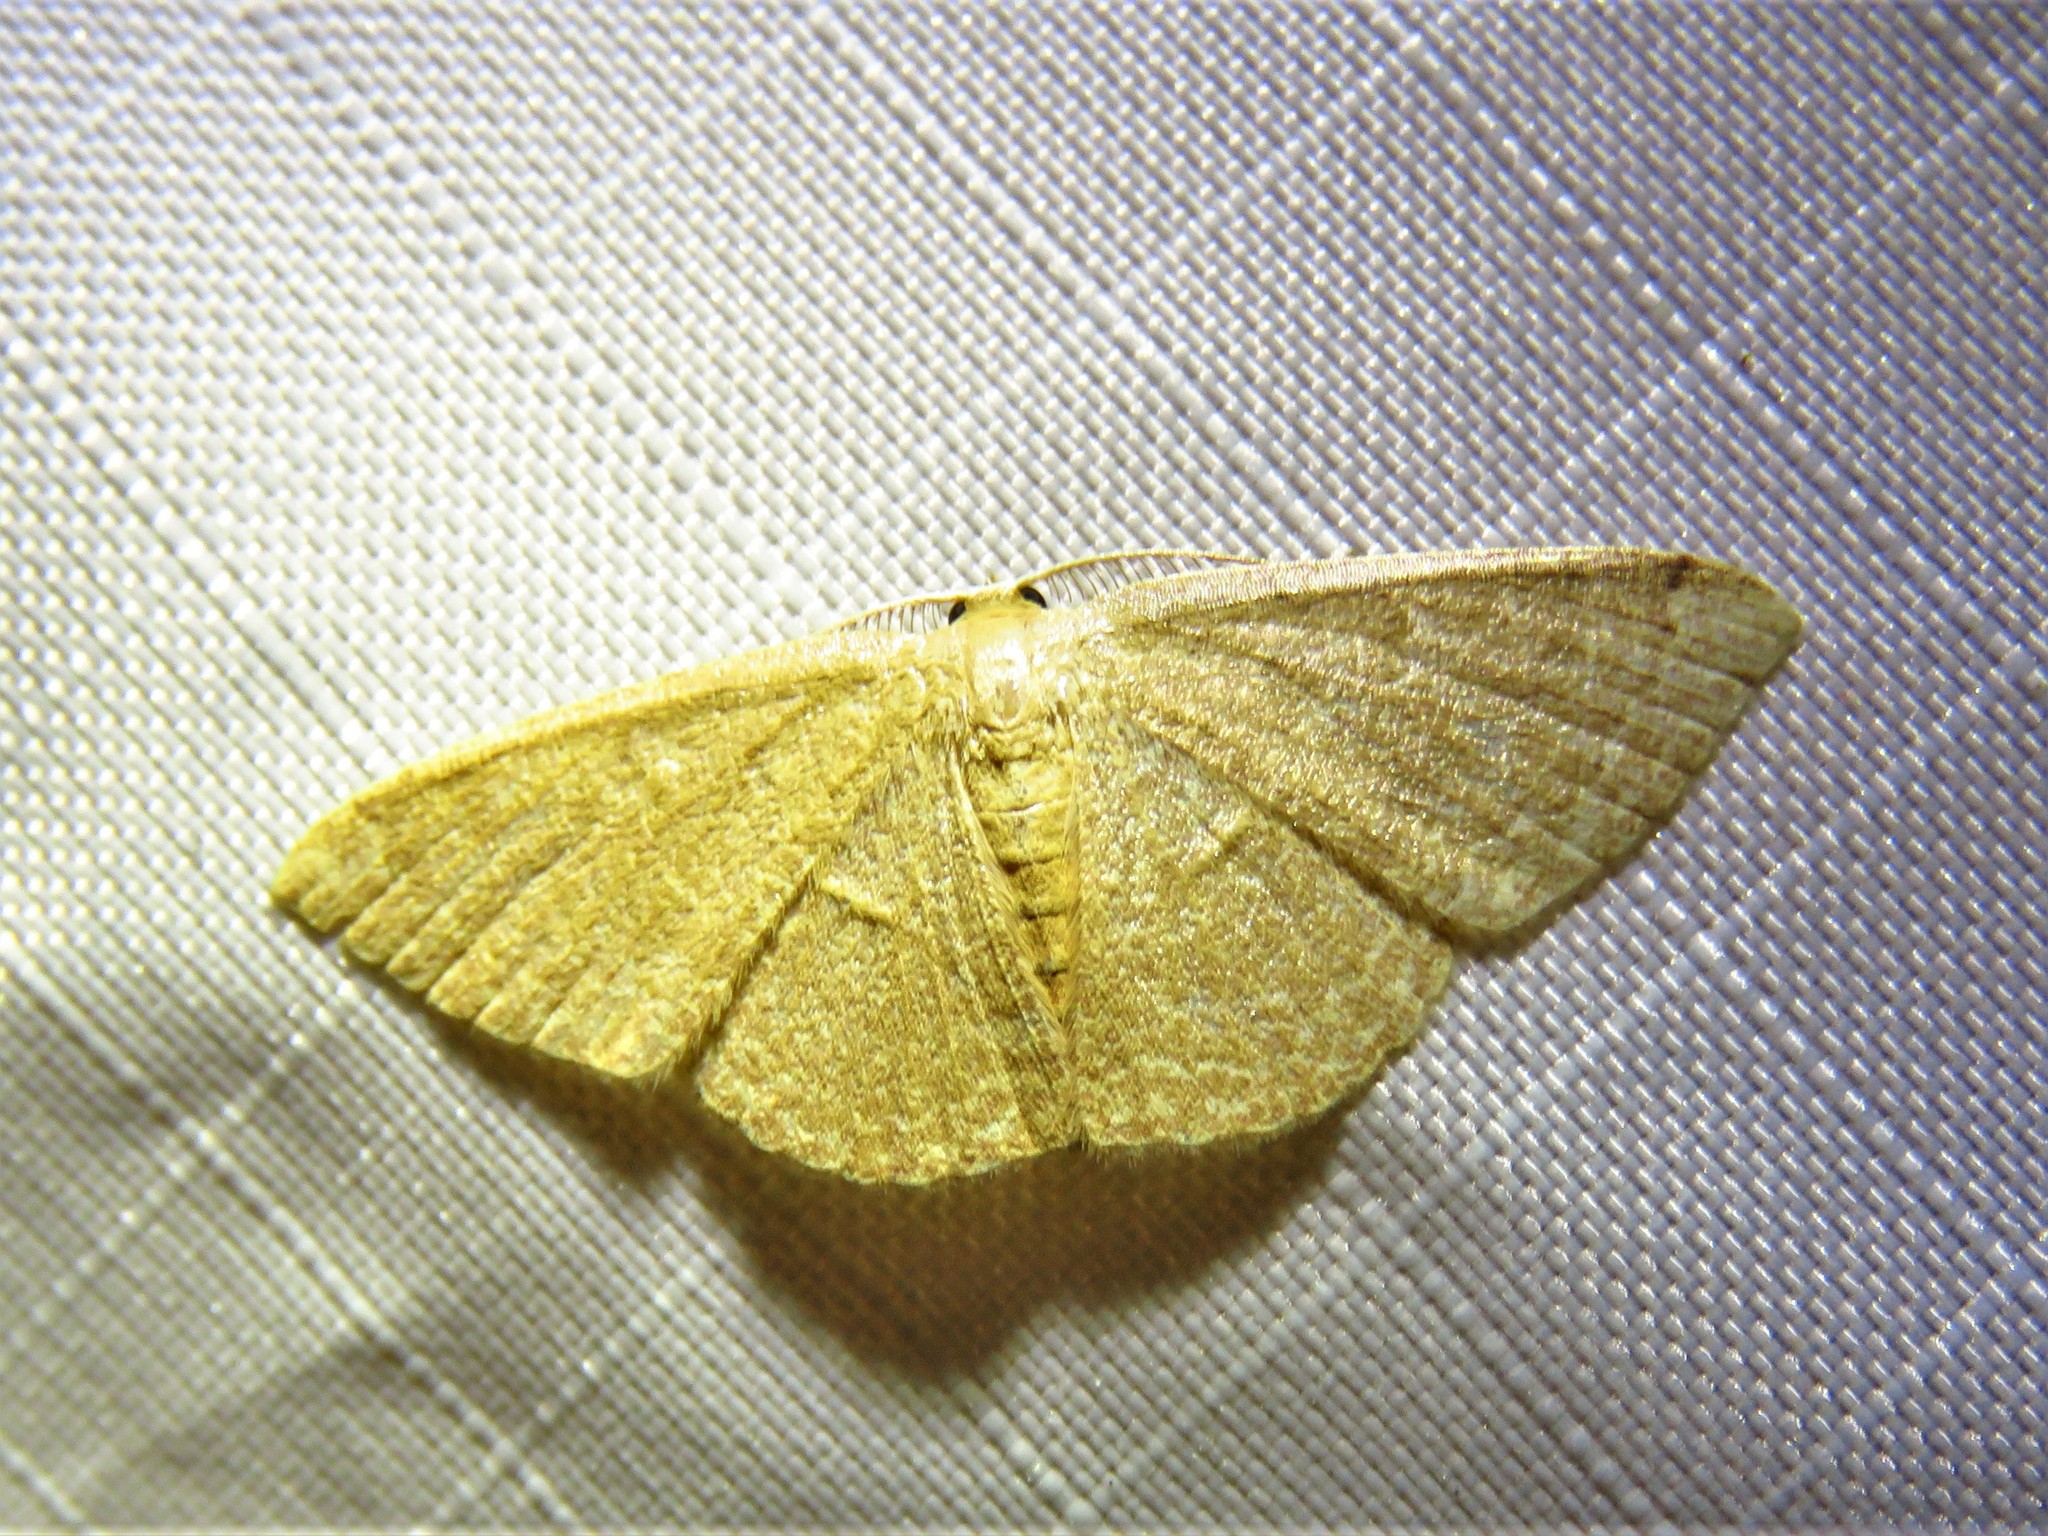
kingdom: Animalia
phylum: Arthropoda
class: Insecta
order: Lepidoptera
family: Geometridae
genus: Pleuroprucha
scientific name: Pleuroprucha insulsaria
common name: Common tan wave
